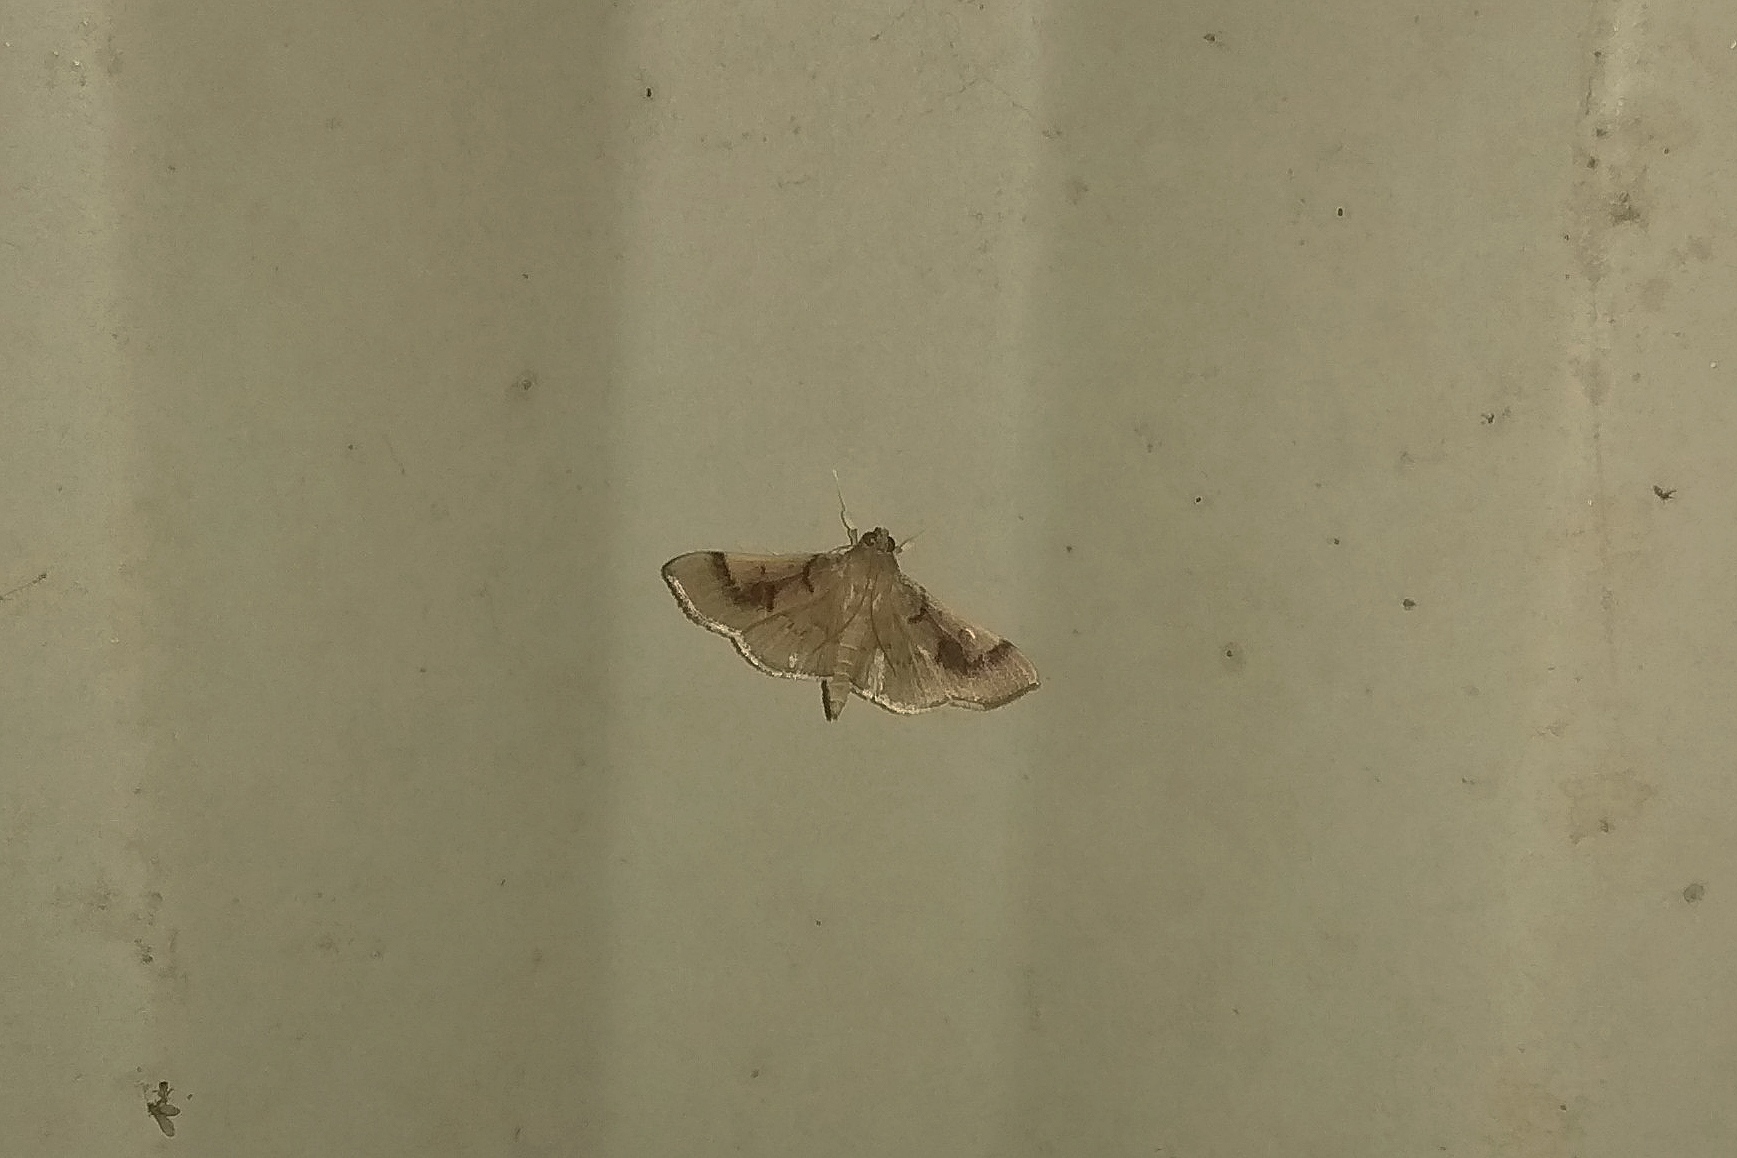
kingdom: Animalia
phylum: Arthropoda
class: Insecta
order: Lepidoptera
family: Crambidae
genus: Omiodes
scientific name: Omiodes
